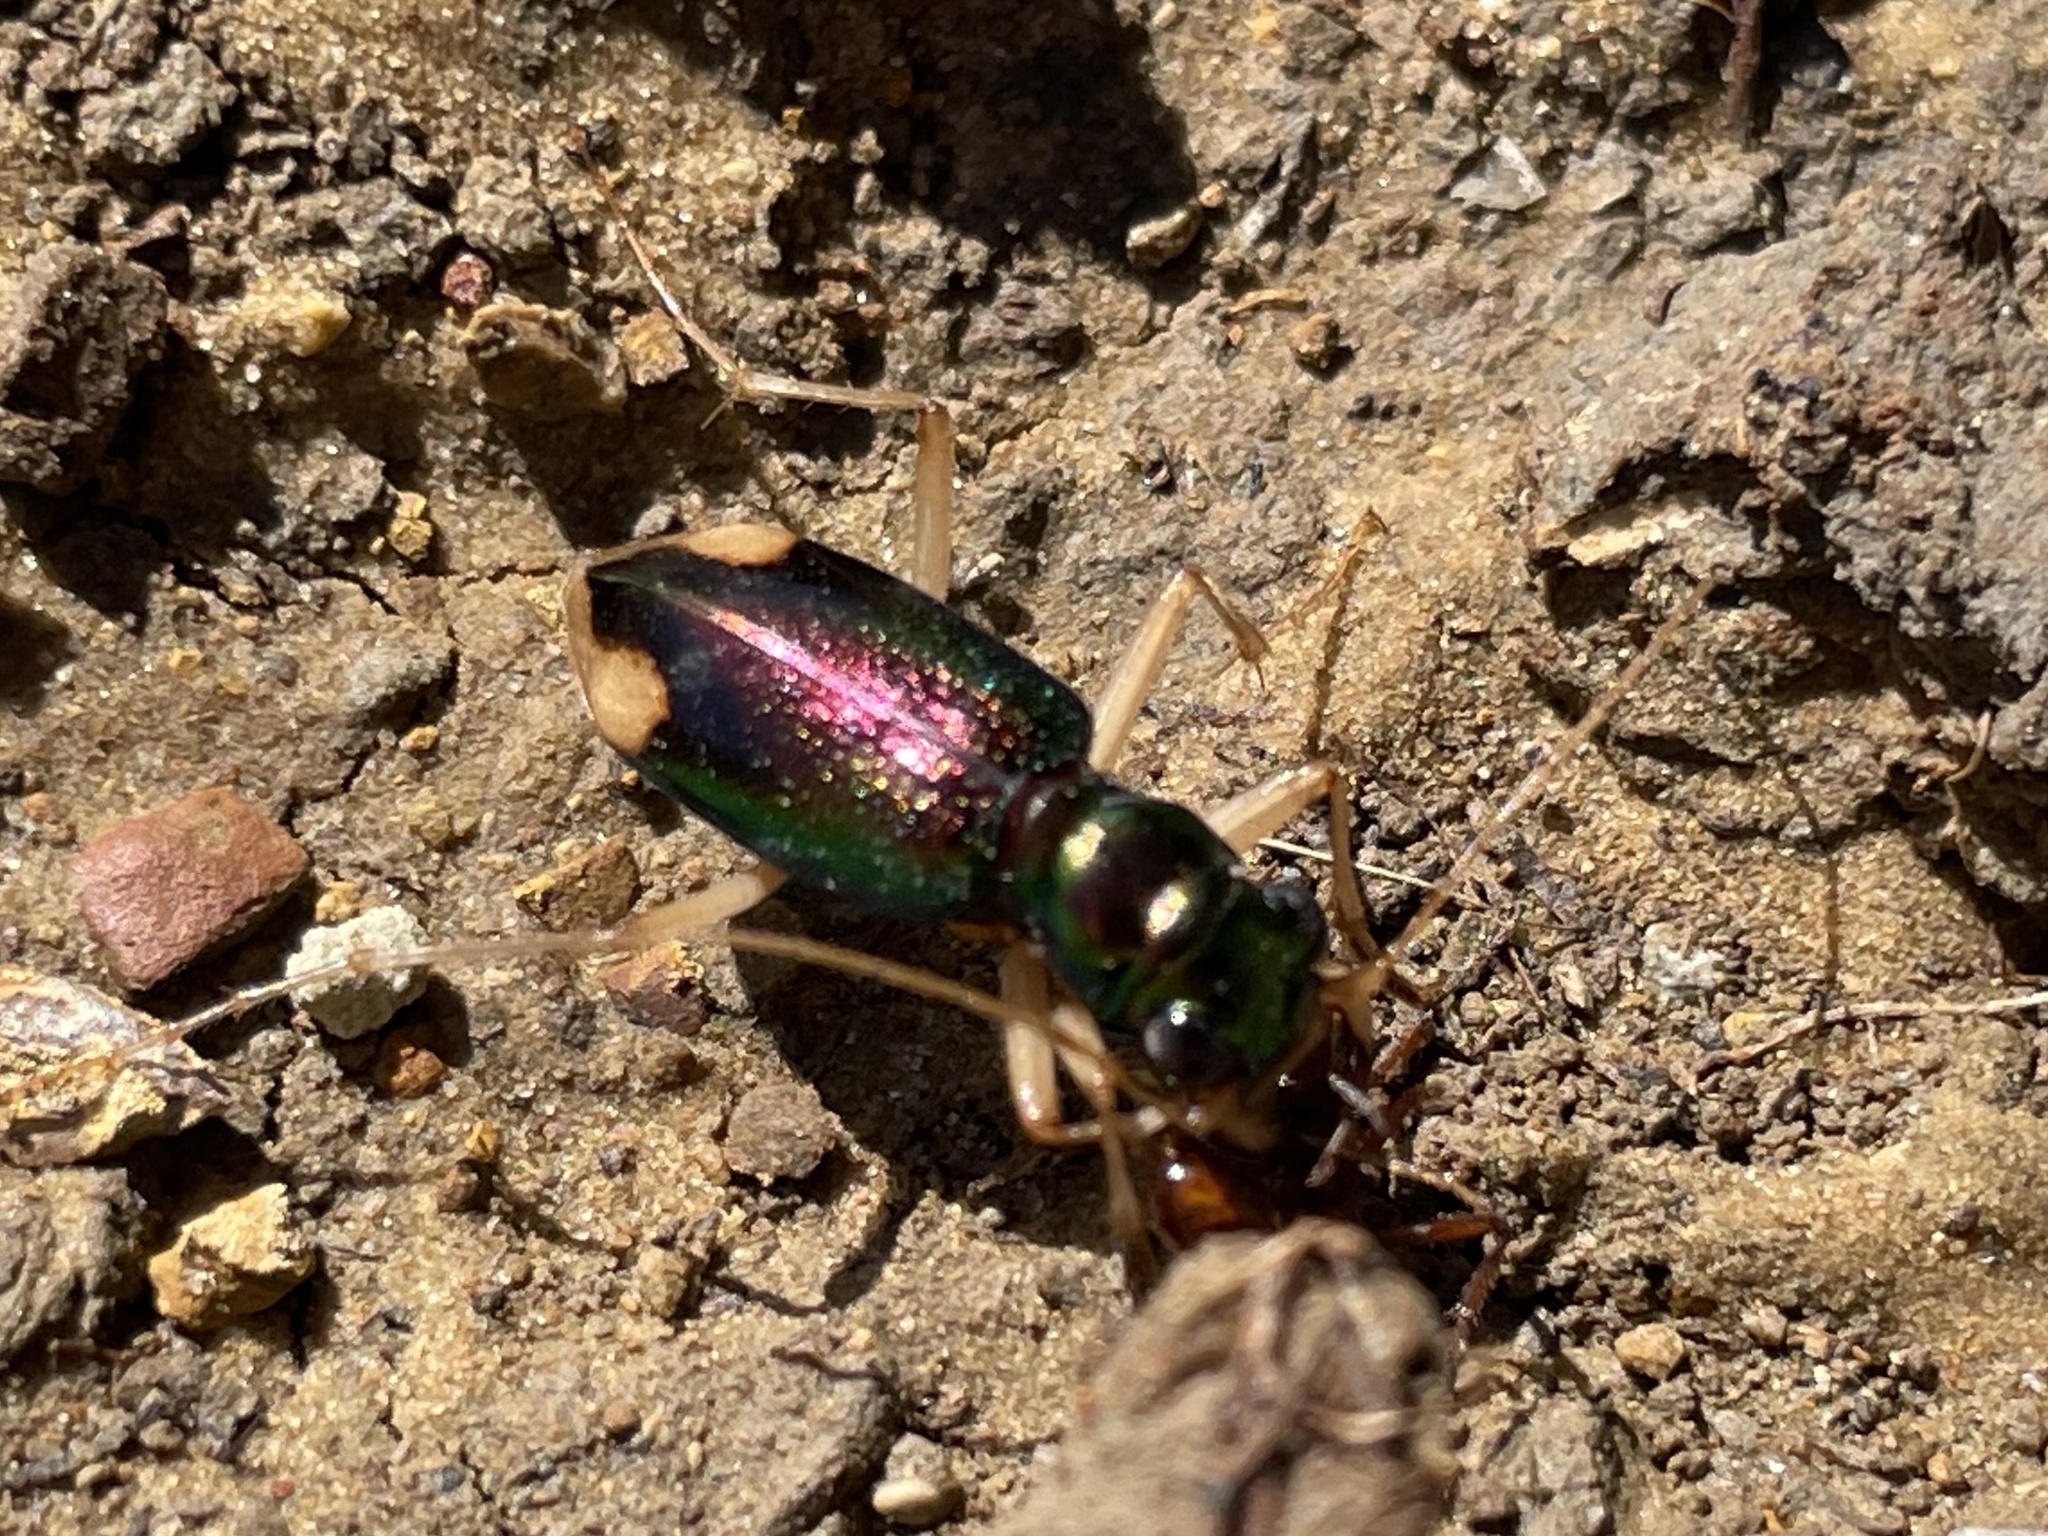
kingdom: Animalia
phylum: Arthropoda
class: Insecta
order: Coleoptera
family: Carabidae
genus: Tetracha
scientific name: Tetracha carolina
